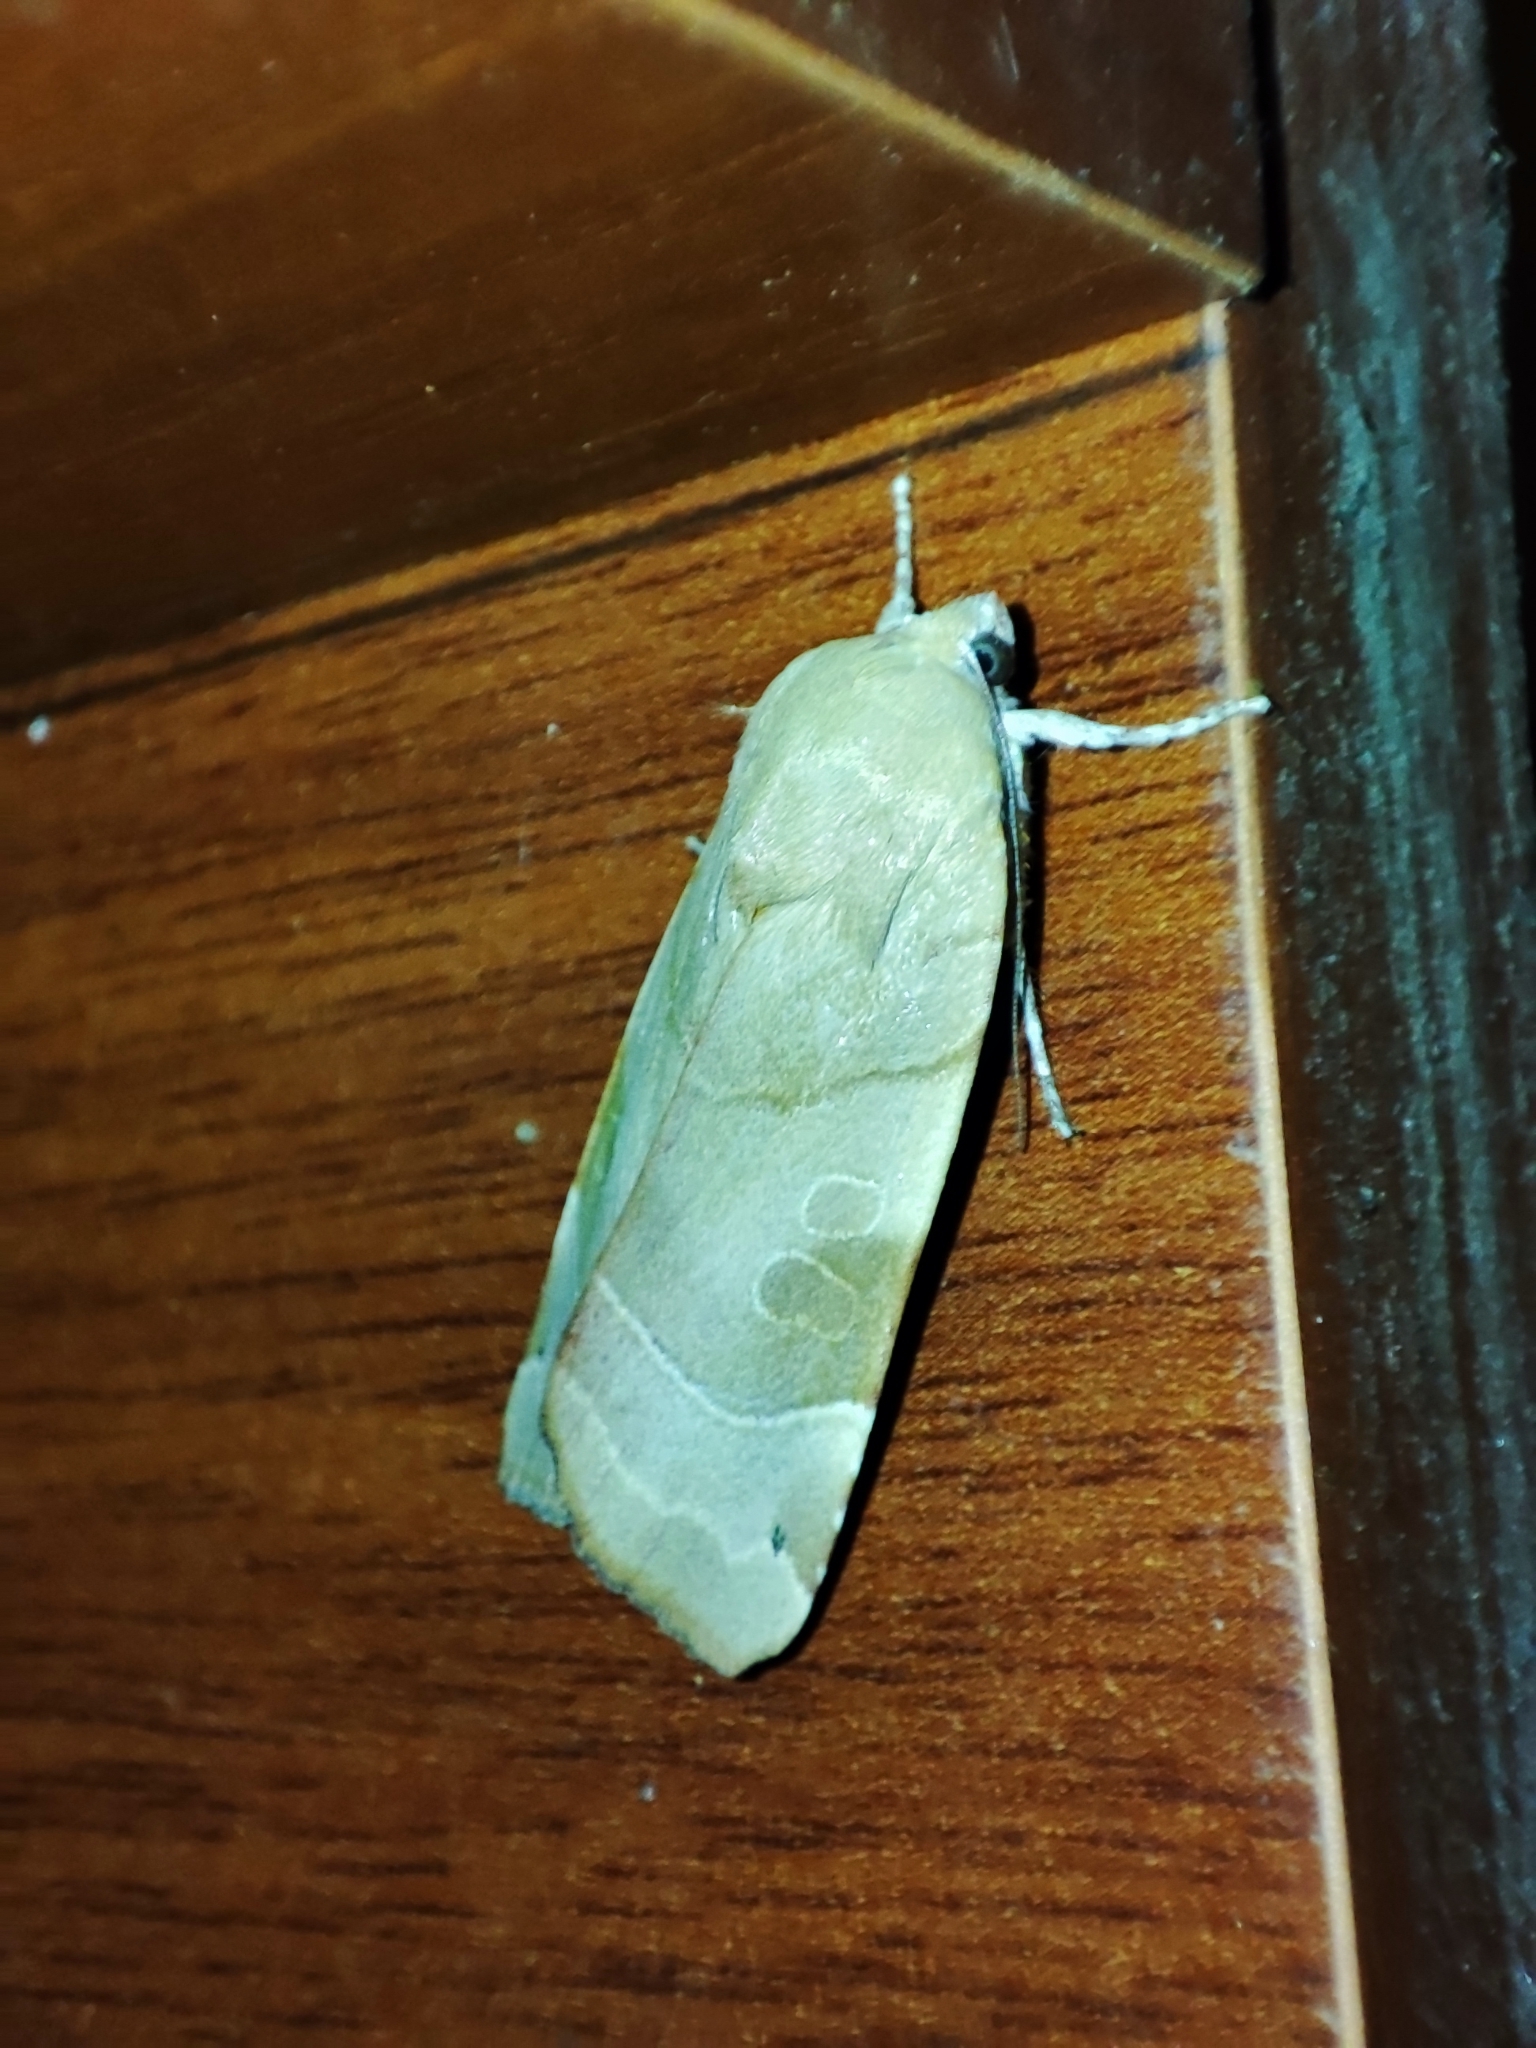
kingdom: Animalia
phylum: Arthropoda
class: Insecta
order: Lepidoptera
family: Noctuidae
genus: Noctua
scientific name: Noctua fimbriata
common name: Broad-bordered yellow underwing
